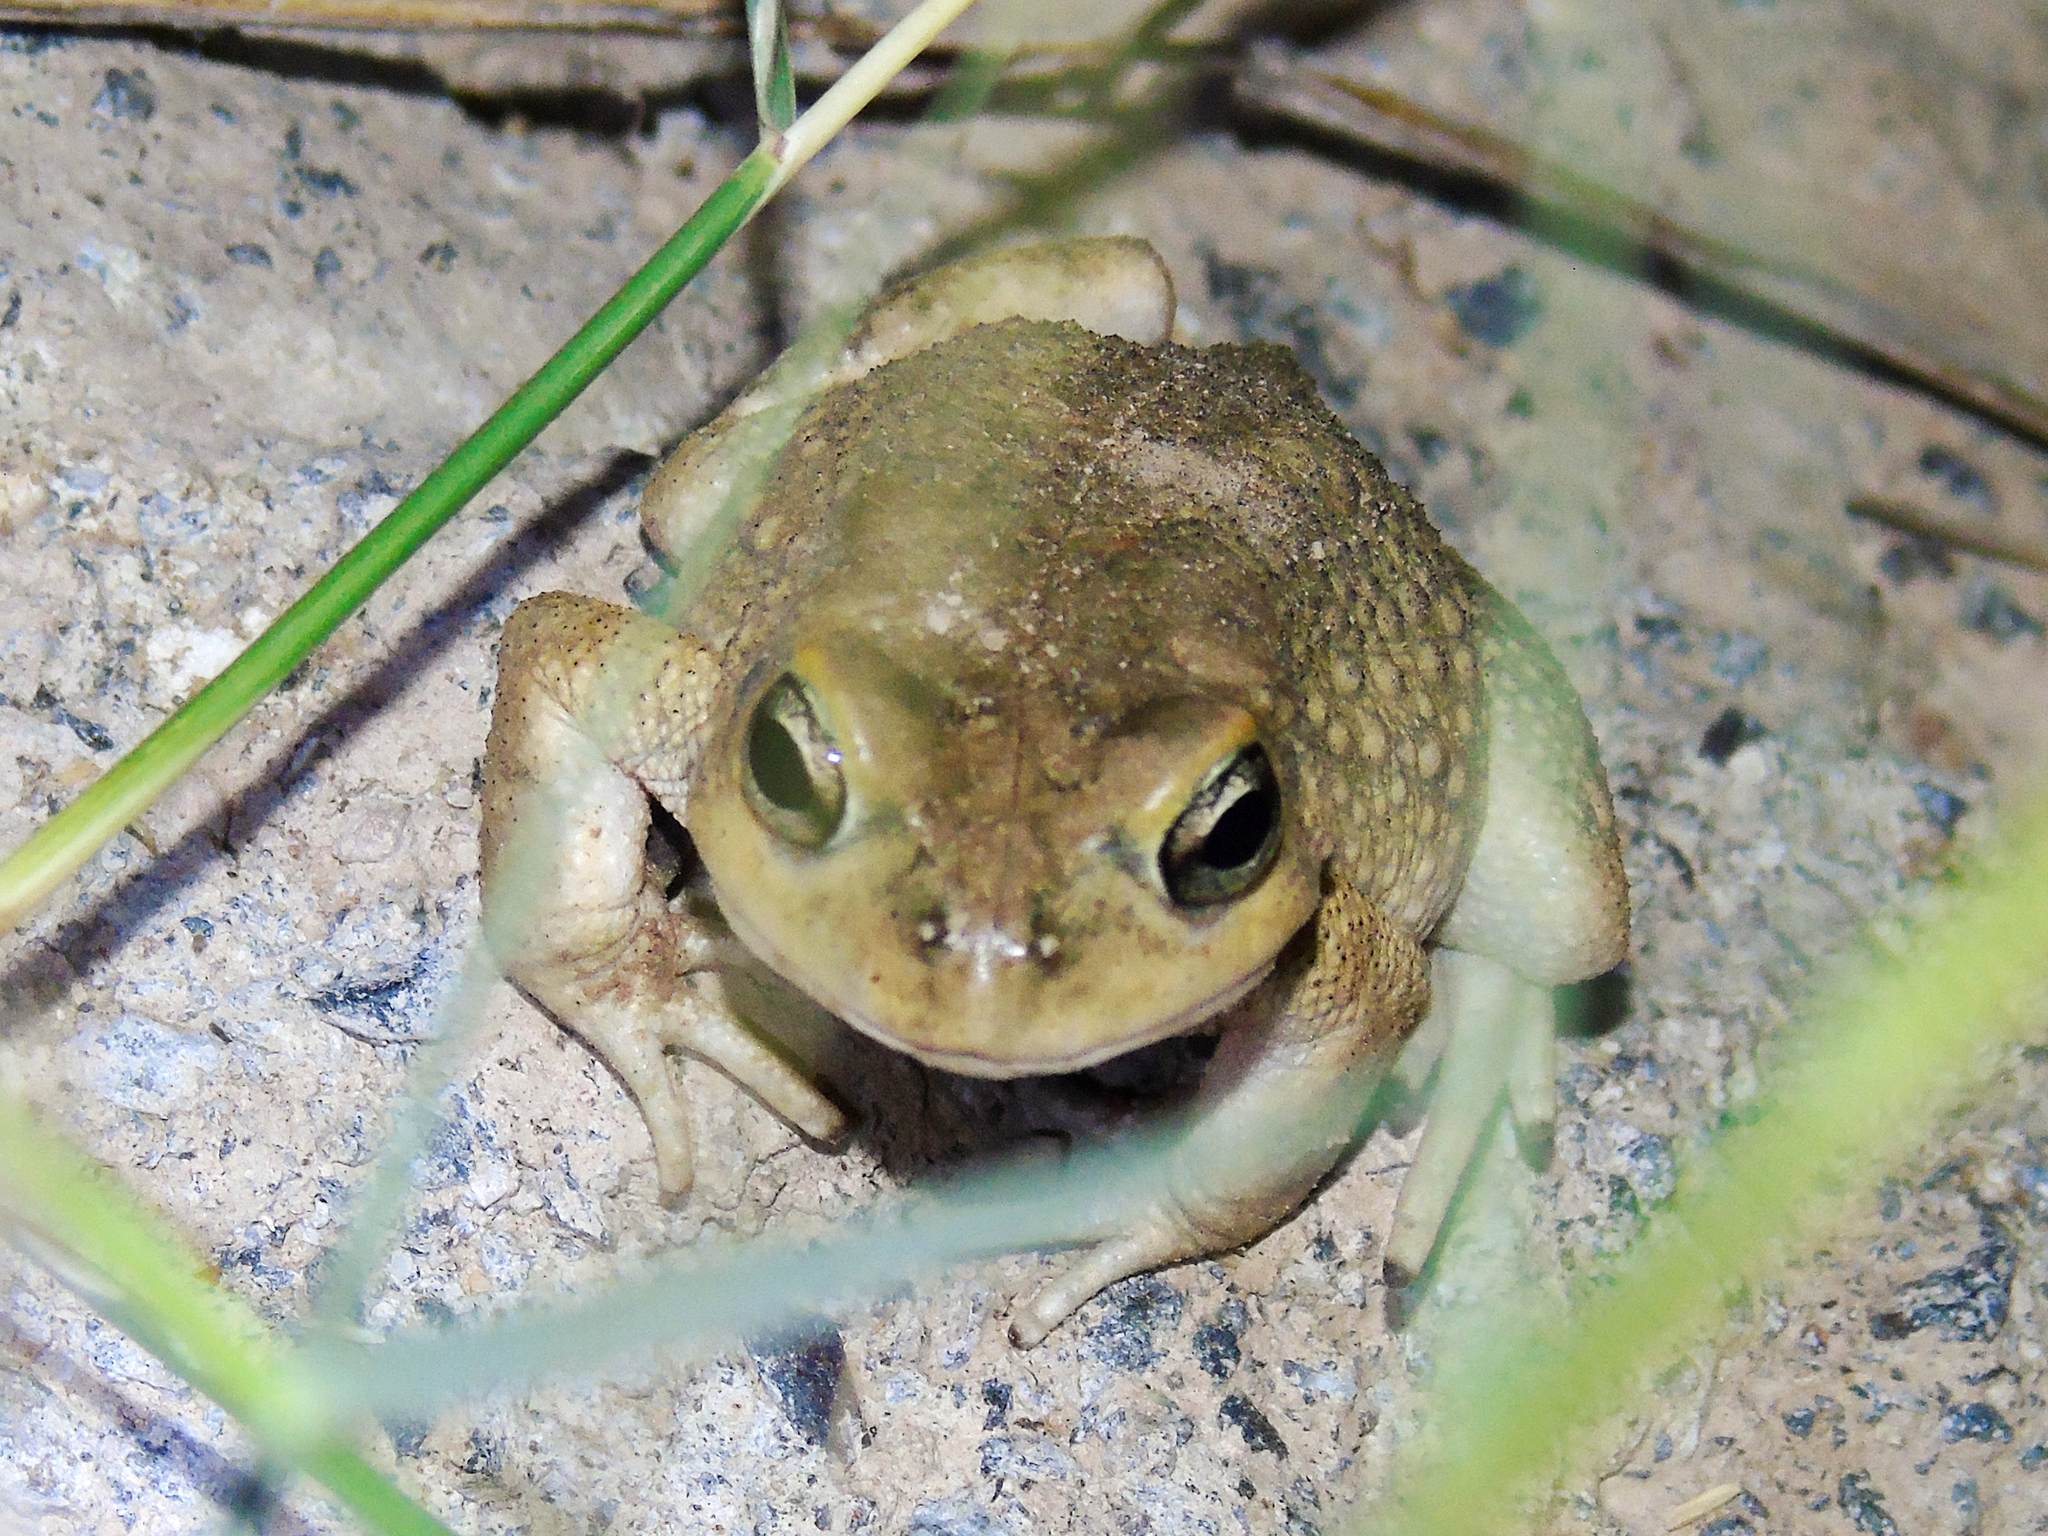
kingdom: Animalia
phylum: Chordata
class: Amphibia
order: Anura
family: Bufonidae
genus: Sclerophrys
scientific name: Sclerophrys arabica
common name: Arabian toad
